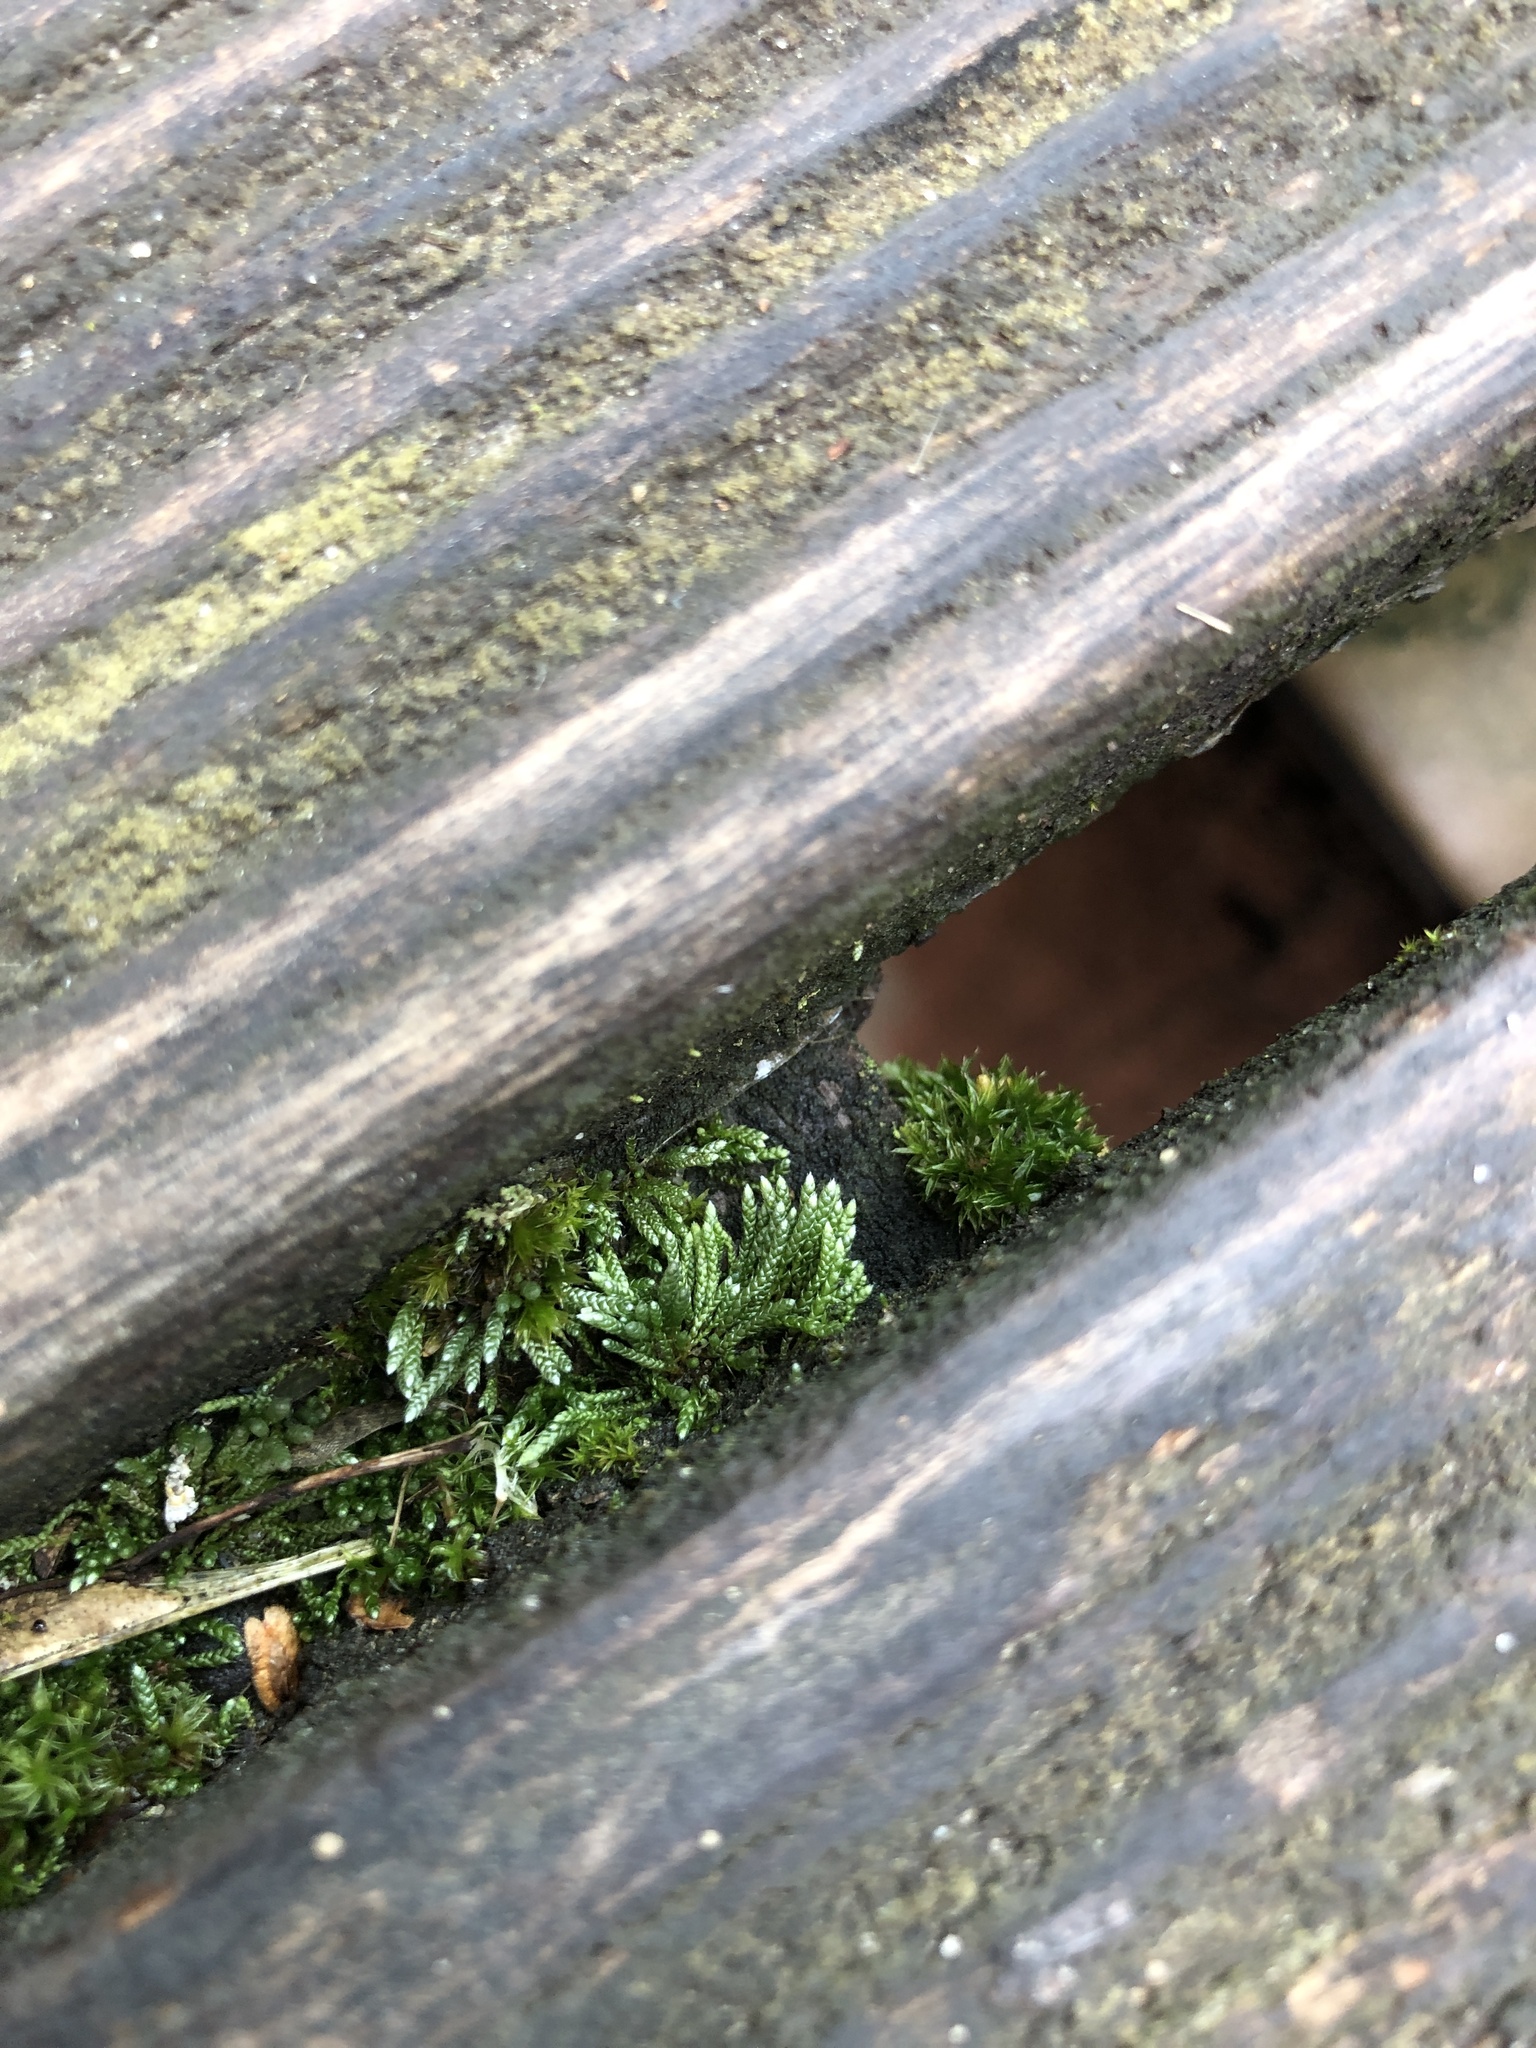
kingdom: Plantae
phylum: Bryophyta
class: Bryopsida
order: Bryales
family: Bryaceae
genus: Bryum
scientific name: Bryum argenteum
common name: Silver-moss
